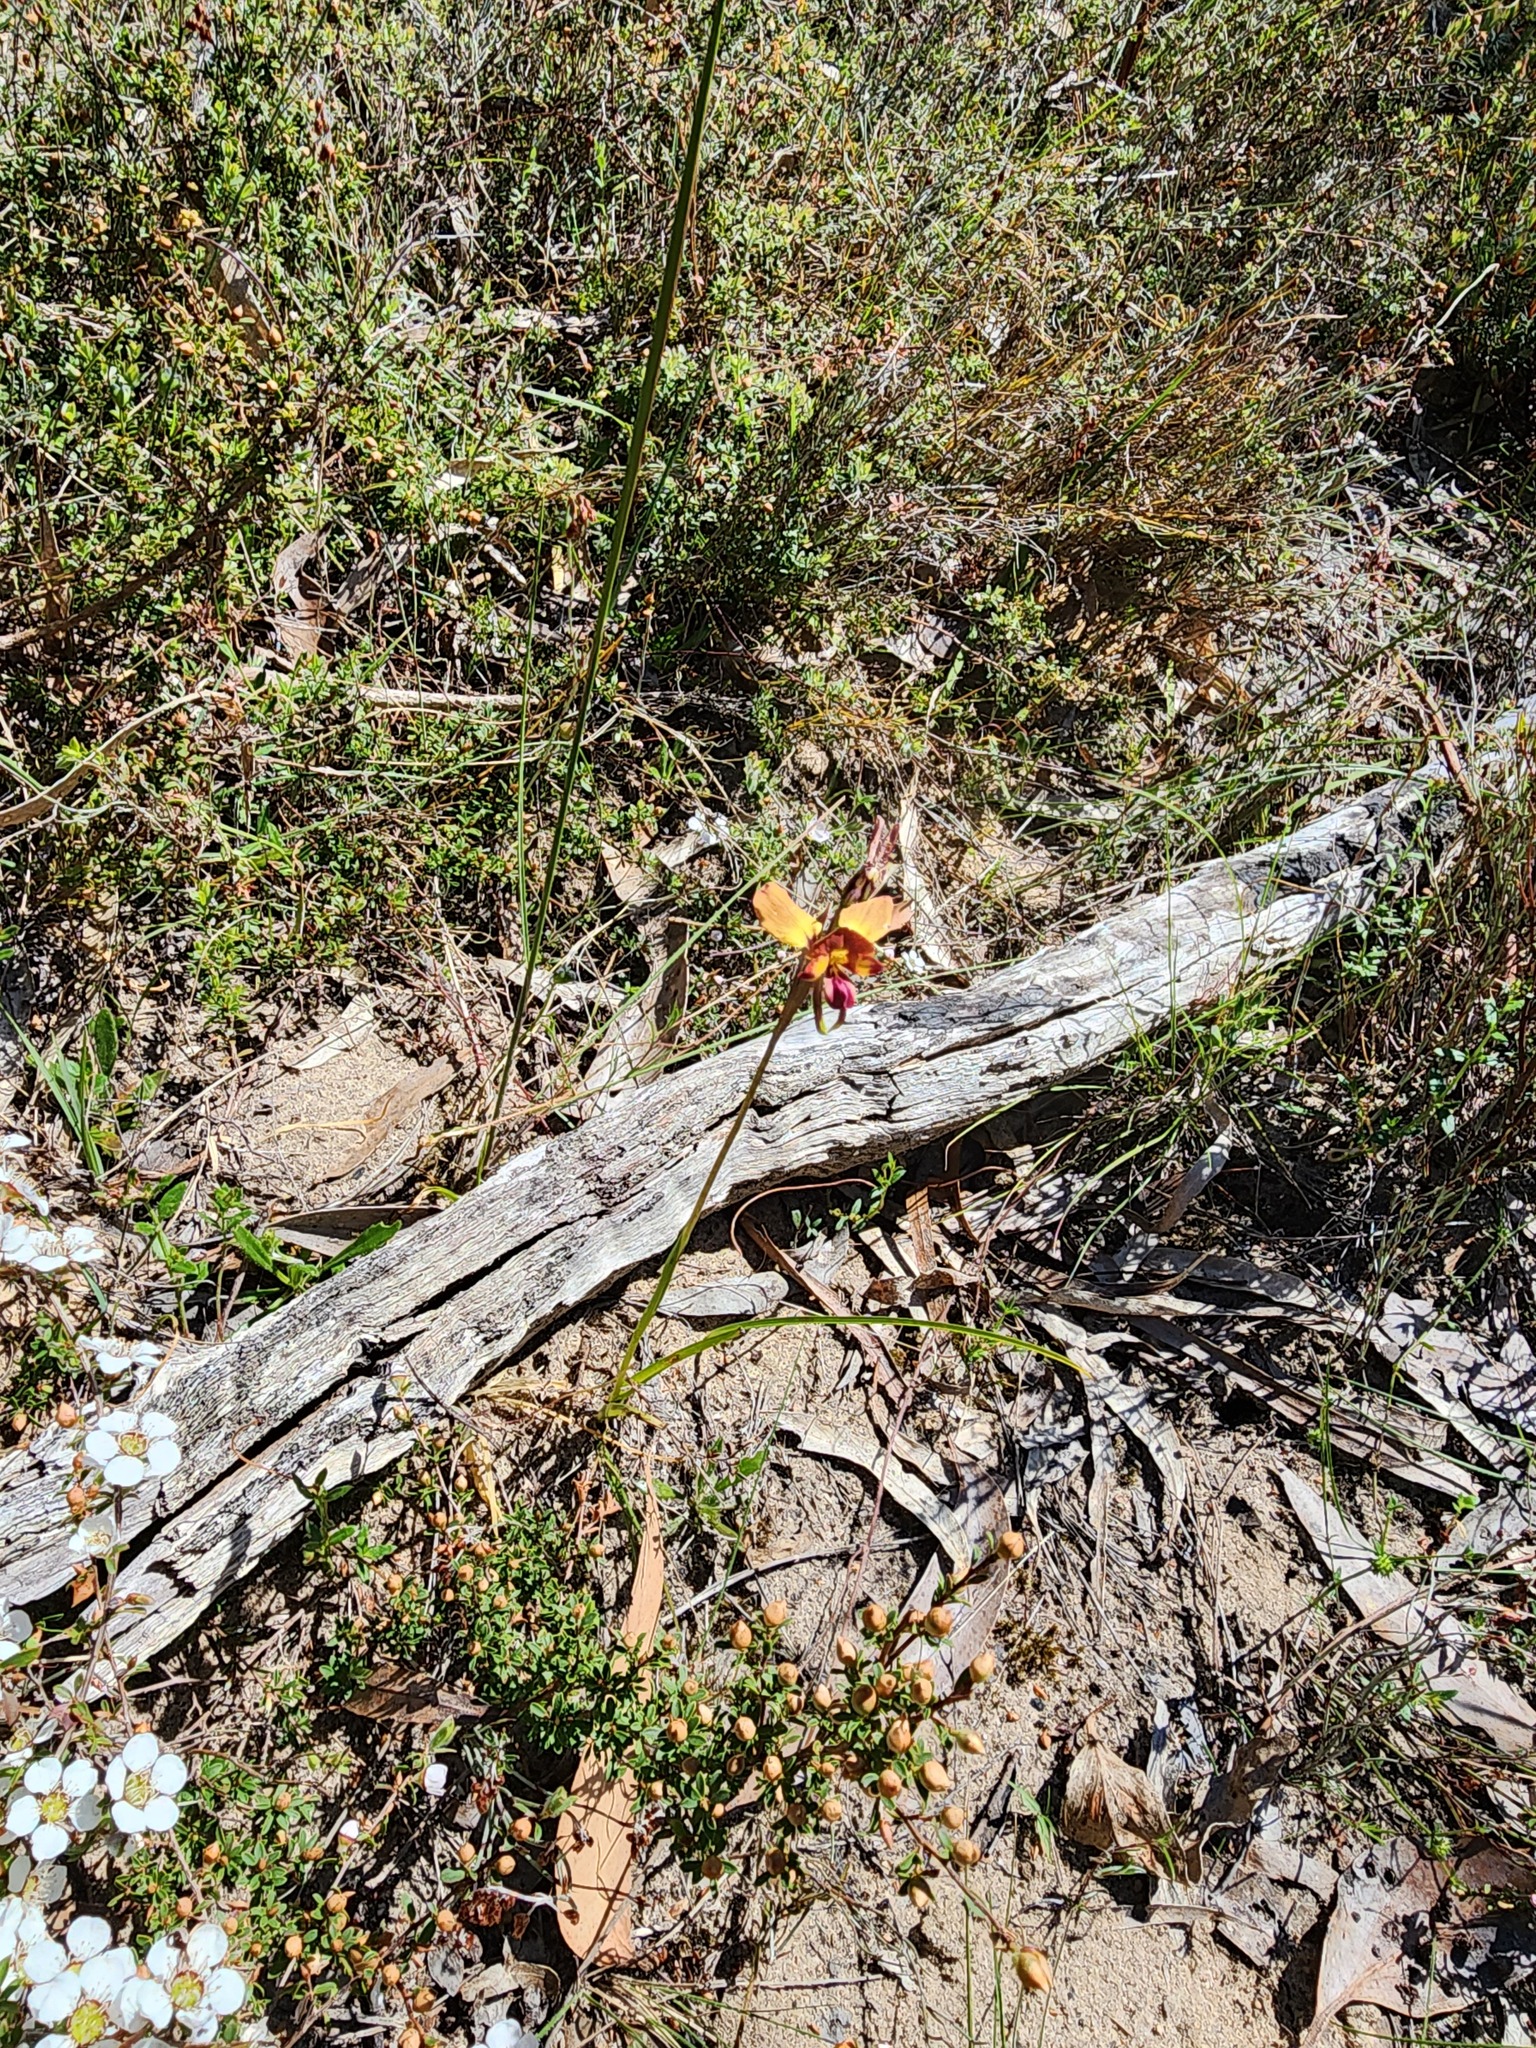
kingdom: Plantae
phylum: Tracheophyta
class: Liliopsida
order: Asparagales
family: Orchidaceae
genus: Diuris
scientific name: Diuris orientis
